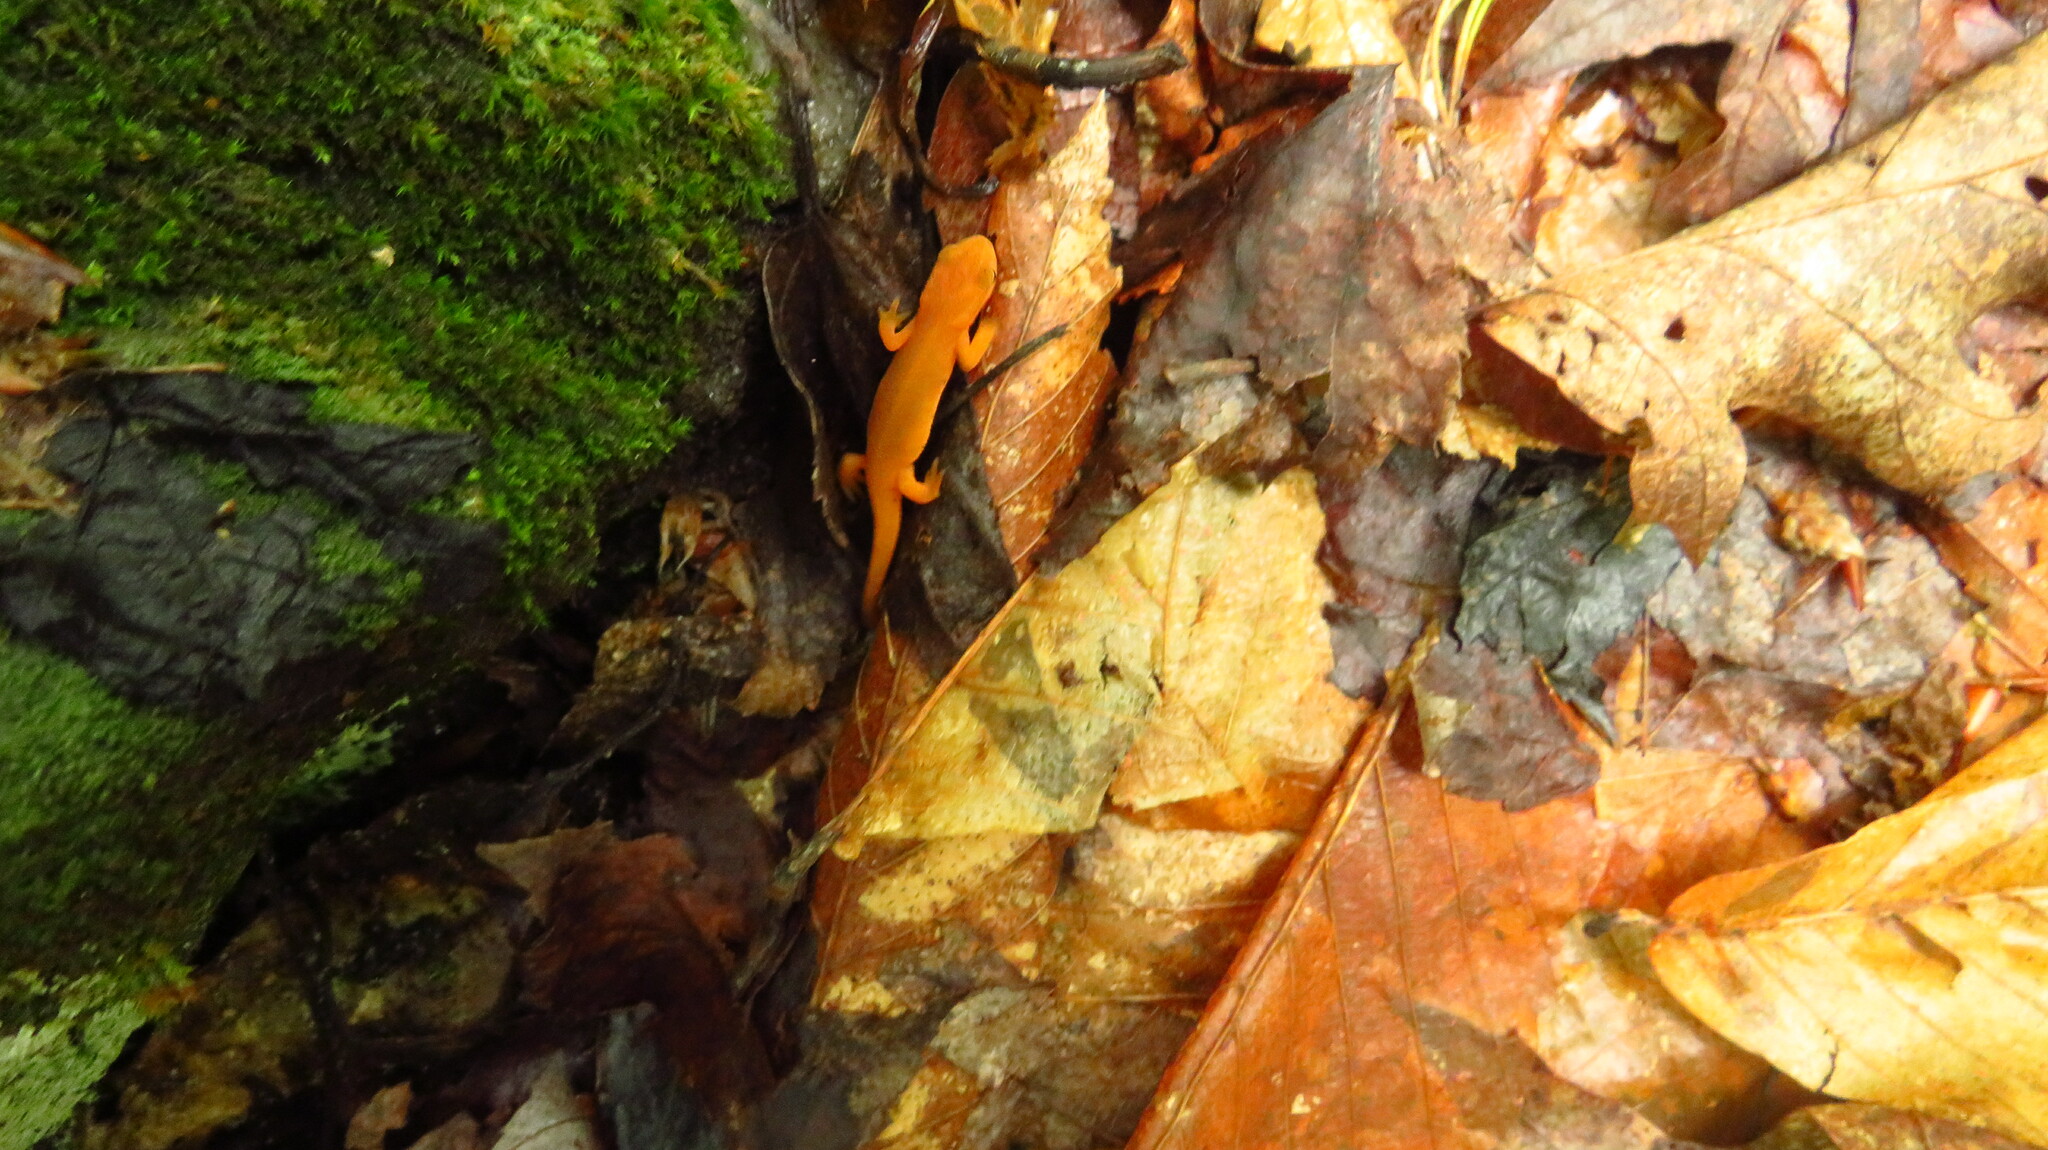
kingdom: Animalia
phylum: Chordata
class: Amphibia
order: Caudata
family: Salamandridae
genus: Notophthalmus
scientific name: Notophthalmus viridescens
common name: Eastern newt
